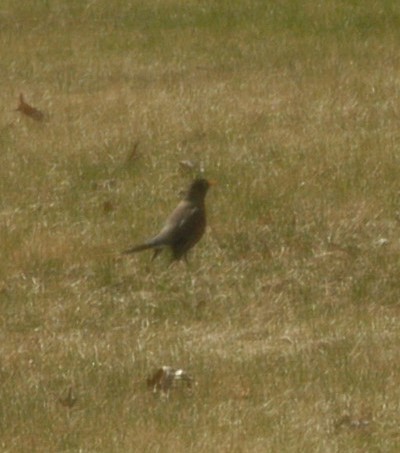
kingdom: Animalia
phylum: Chordata
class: Aves
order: Passeriformes
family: Turdidae
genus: Turdus
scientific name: Turdus migratorius
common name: American robin
